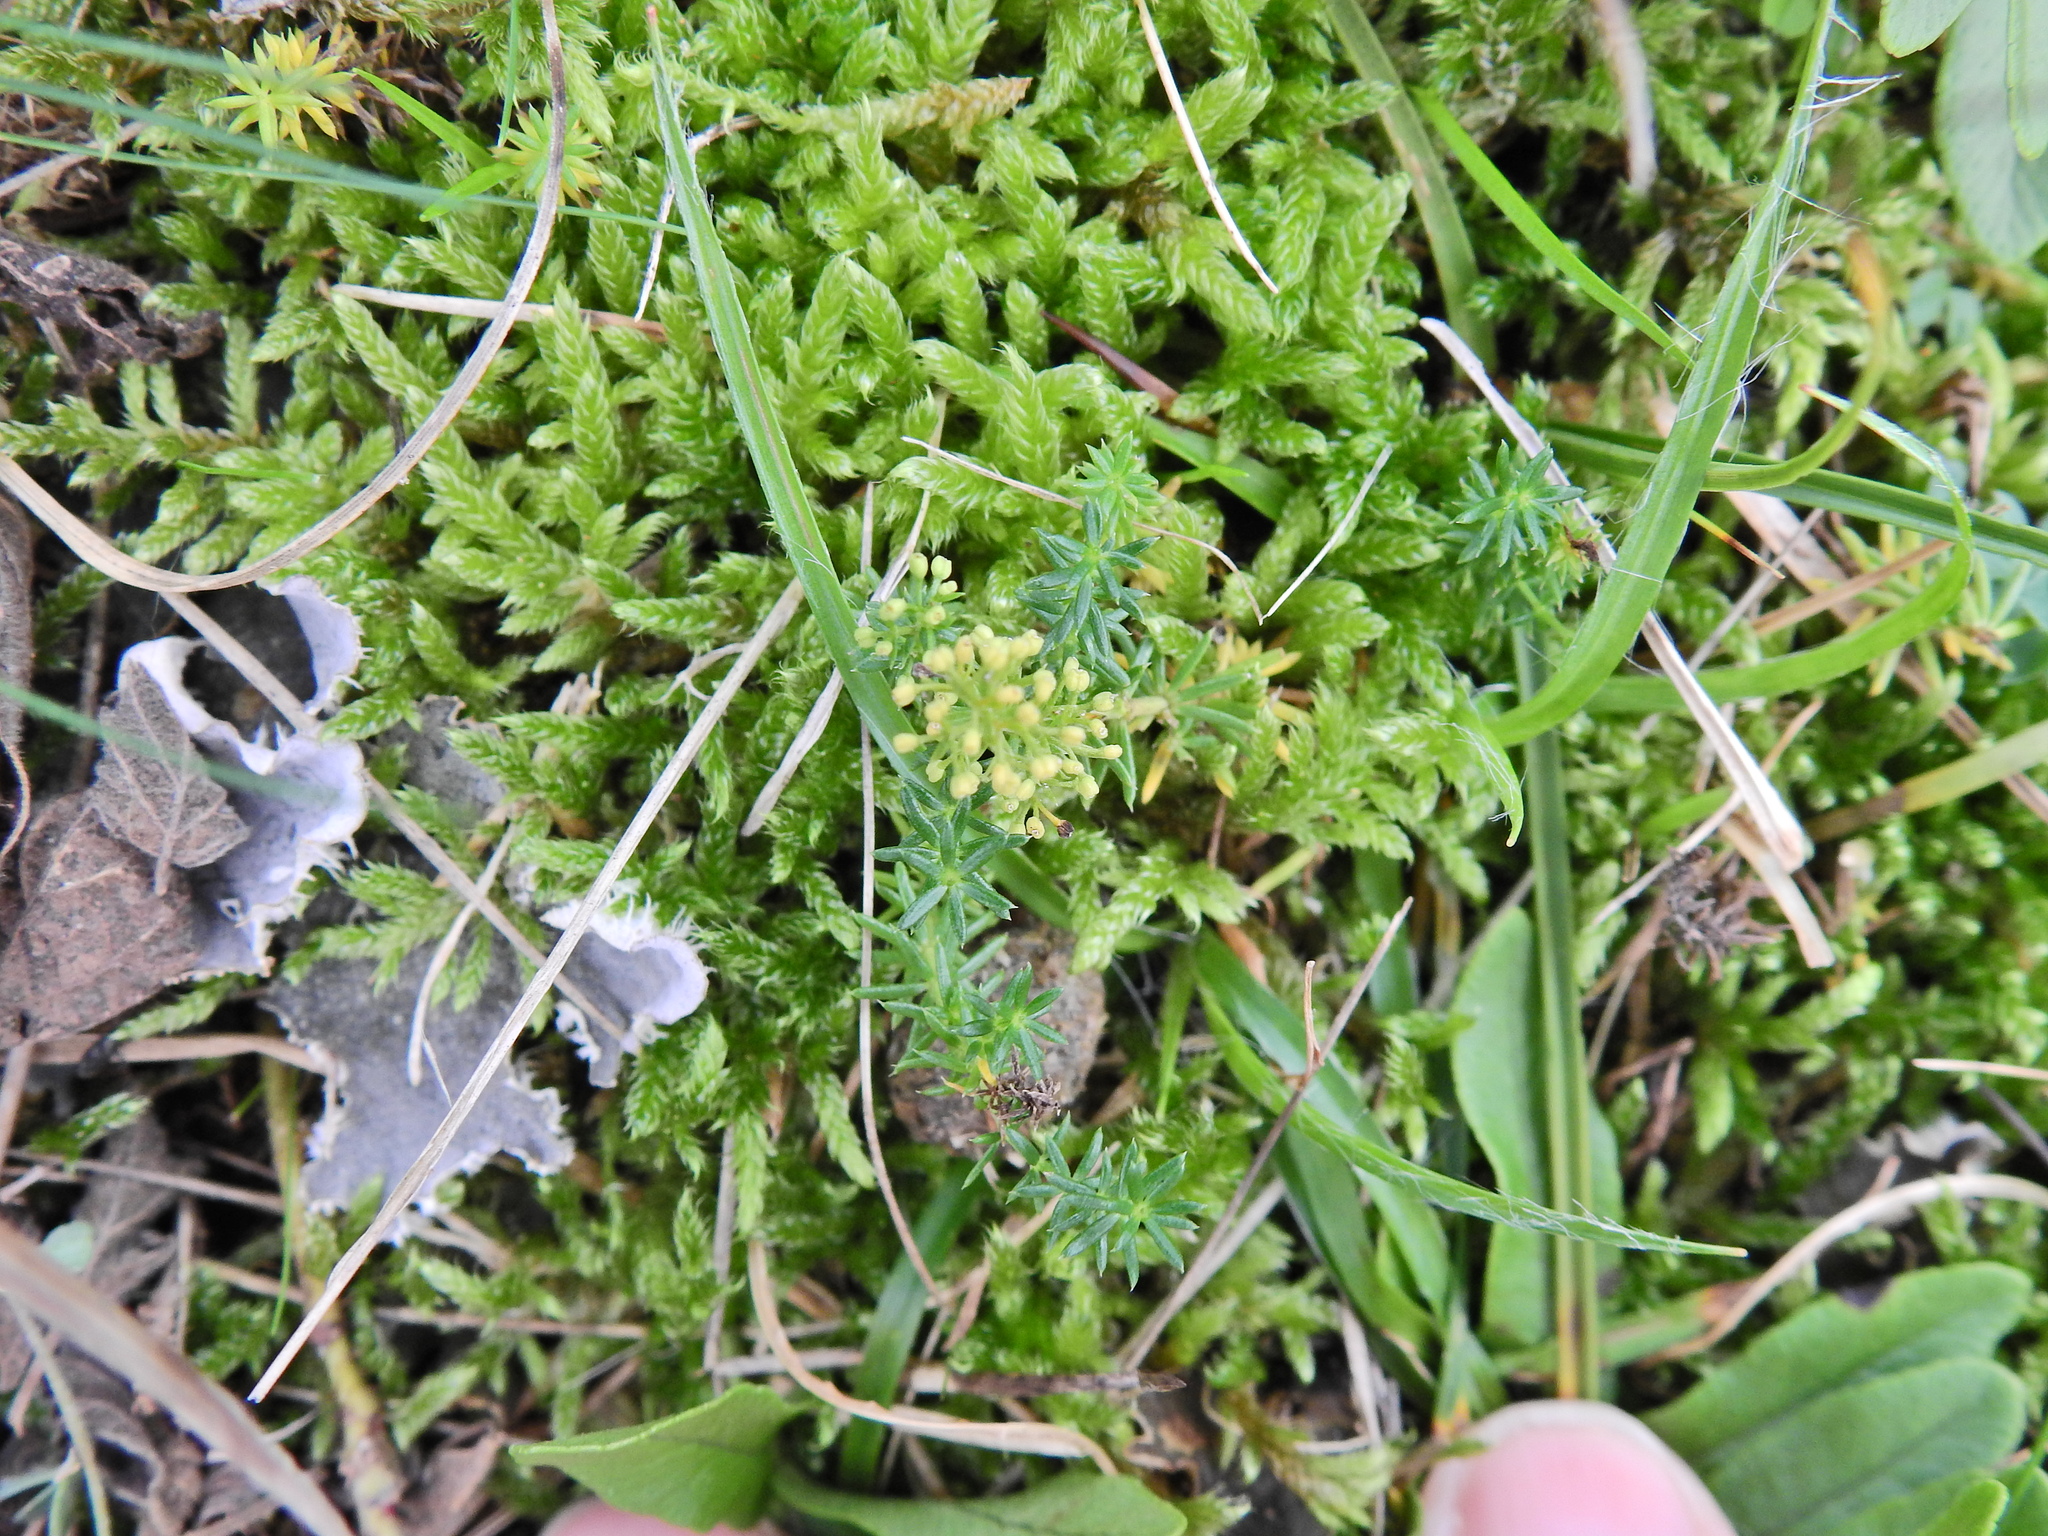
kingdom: Plantae
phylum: Tracheophyta
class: Magnoliopsida
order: Gentianales
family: Rubiaceae
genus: Galium
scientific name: Galium verum
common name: Lady's bedstraw
